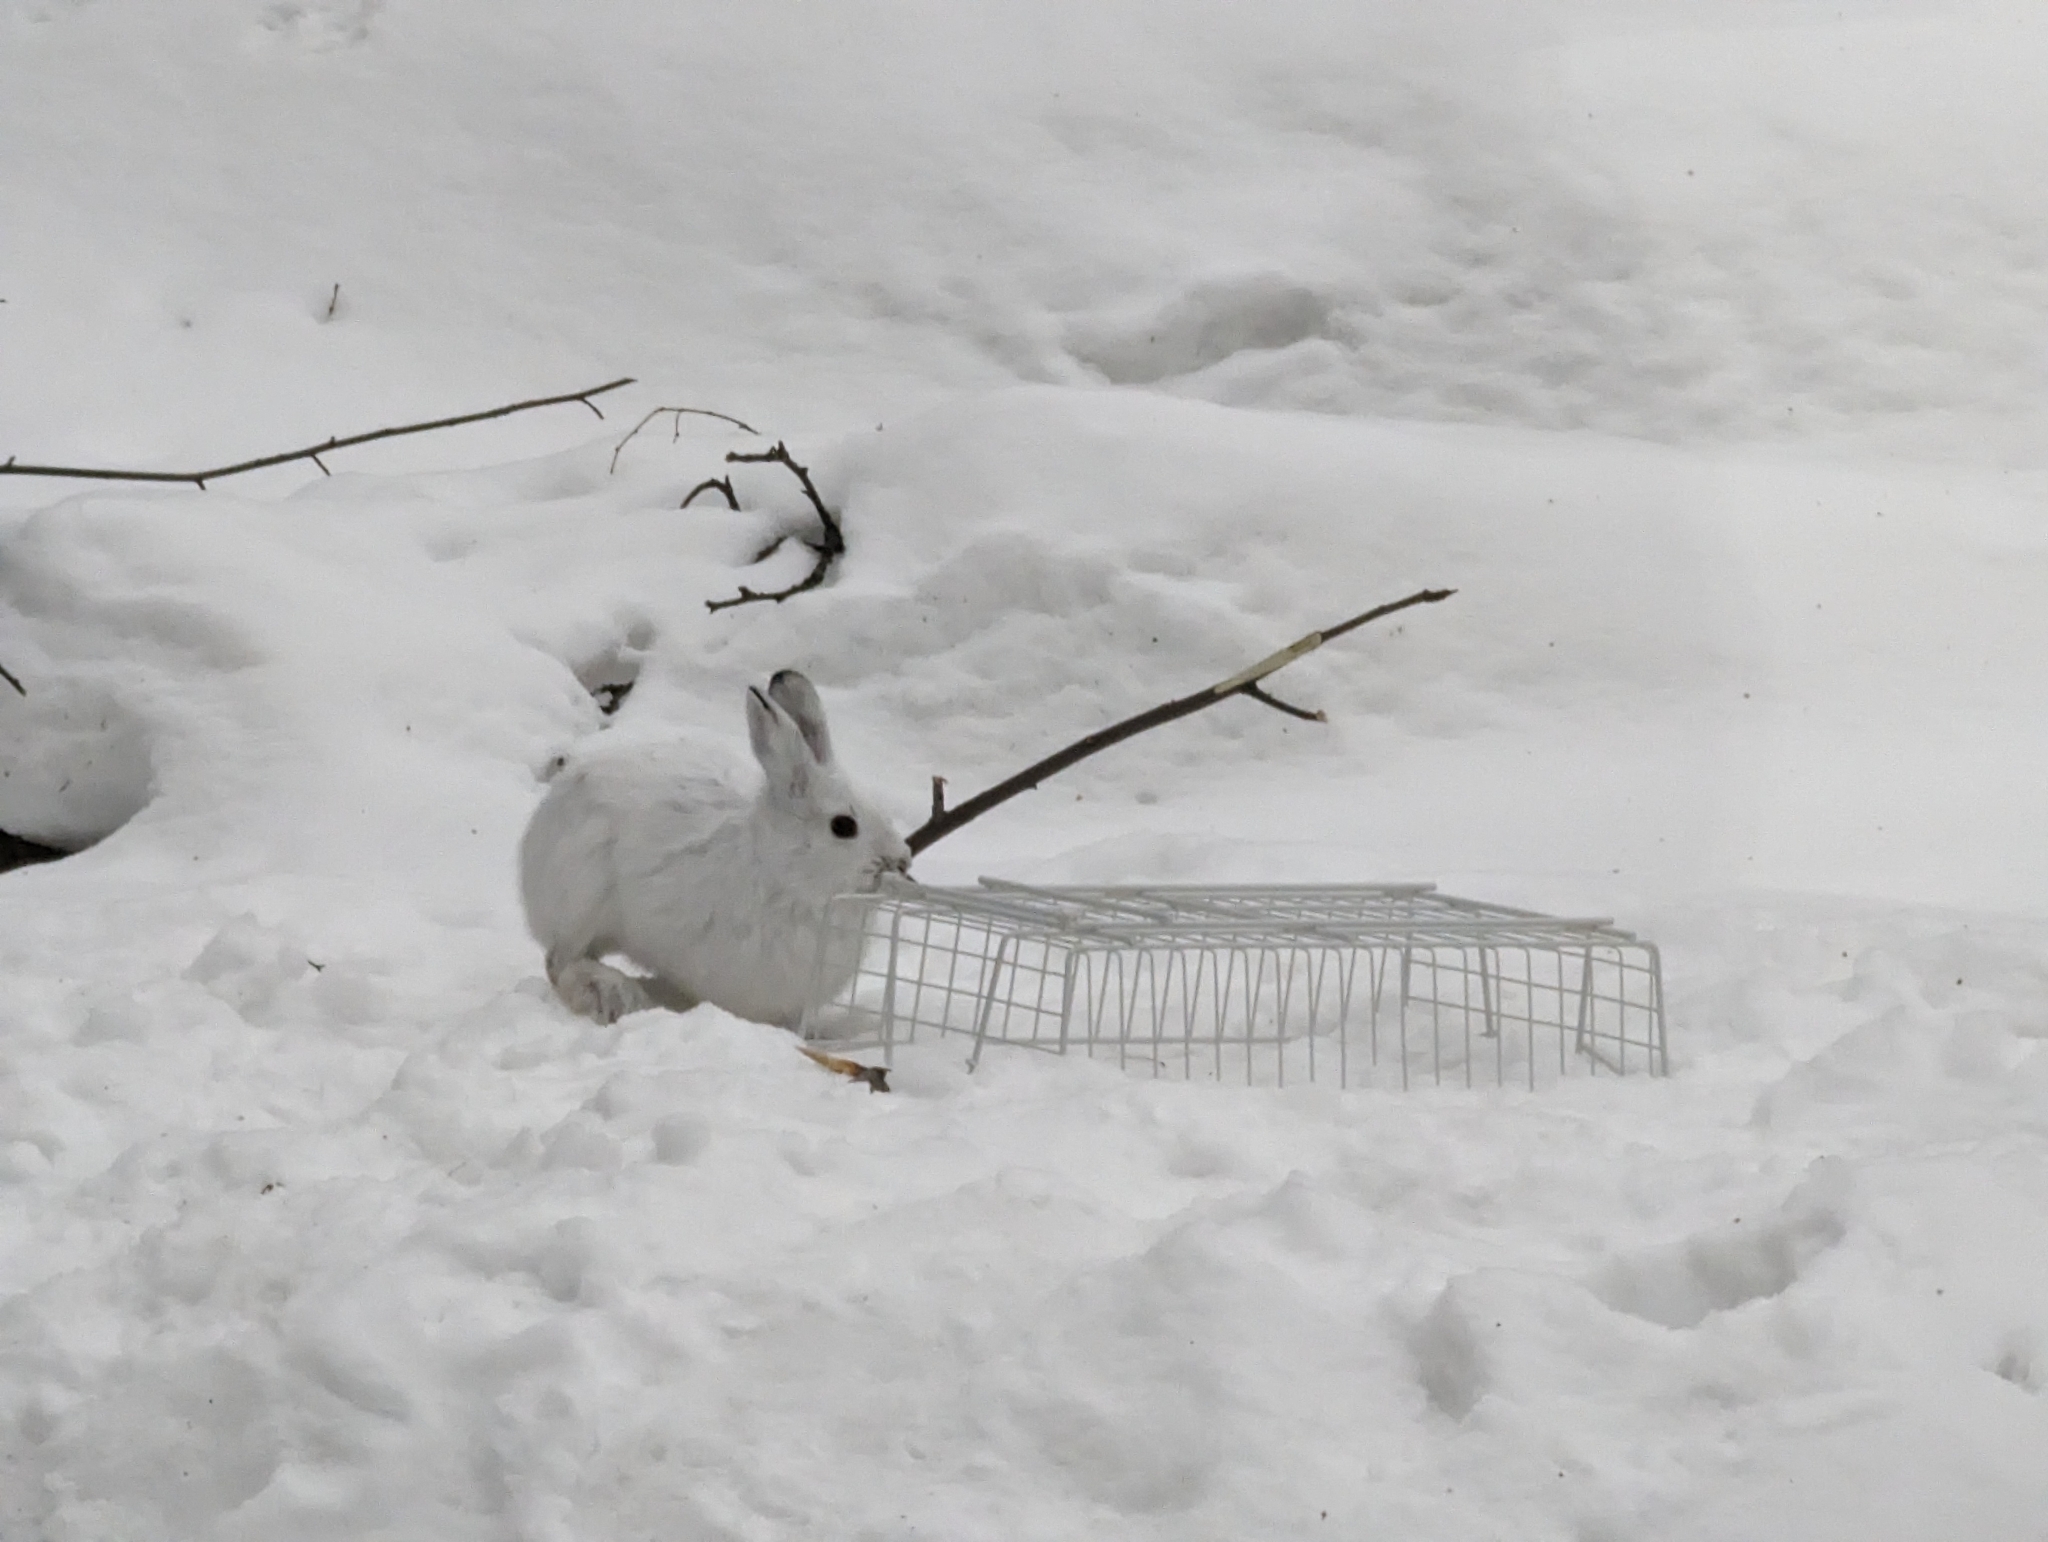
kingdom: Animalia
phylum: Chordata
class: Mammalia
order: Lagomorpha
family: Leporidae
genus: Lepus
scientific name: Lepus americanus
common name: Snowshoe hare
